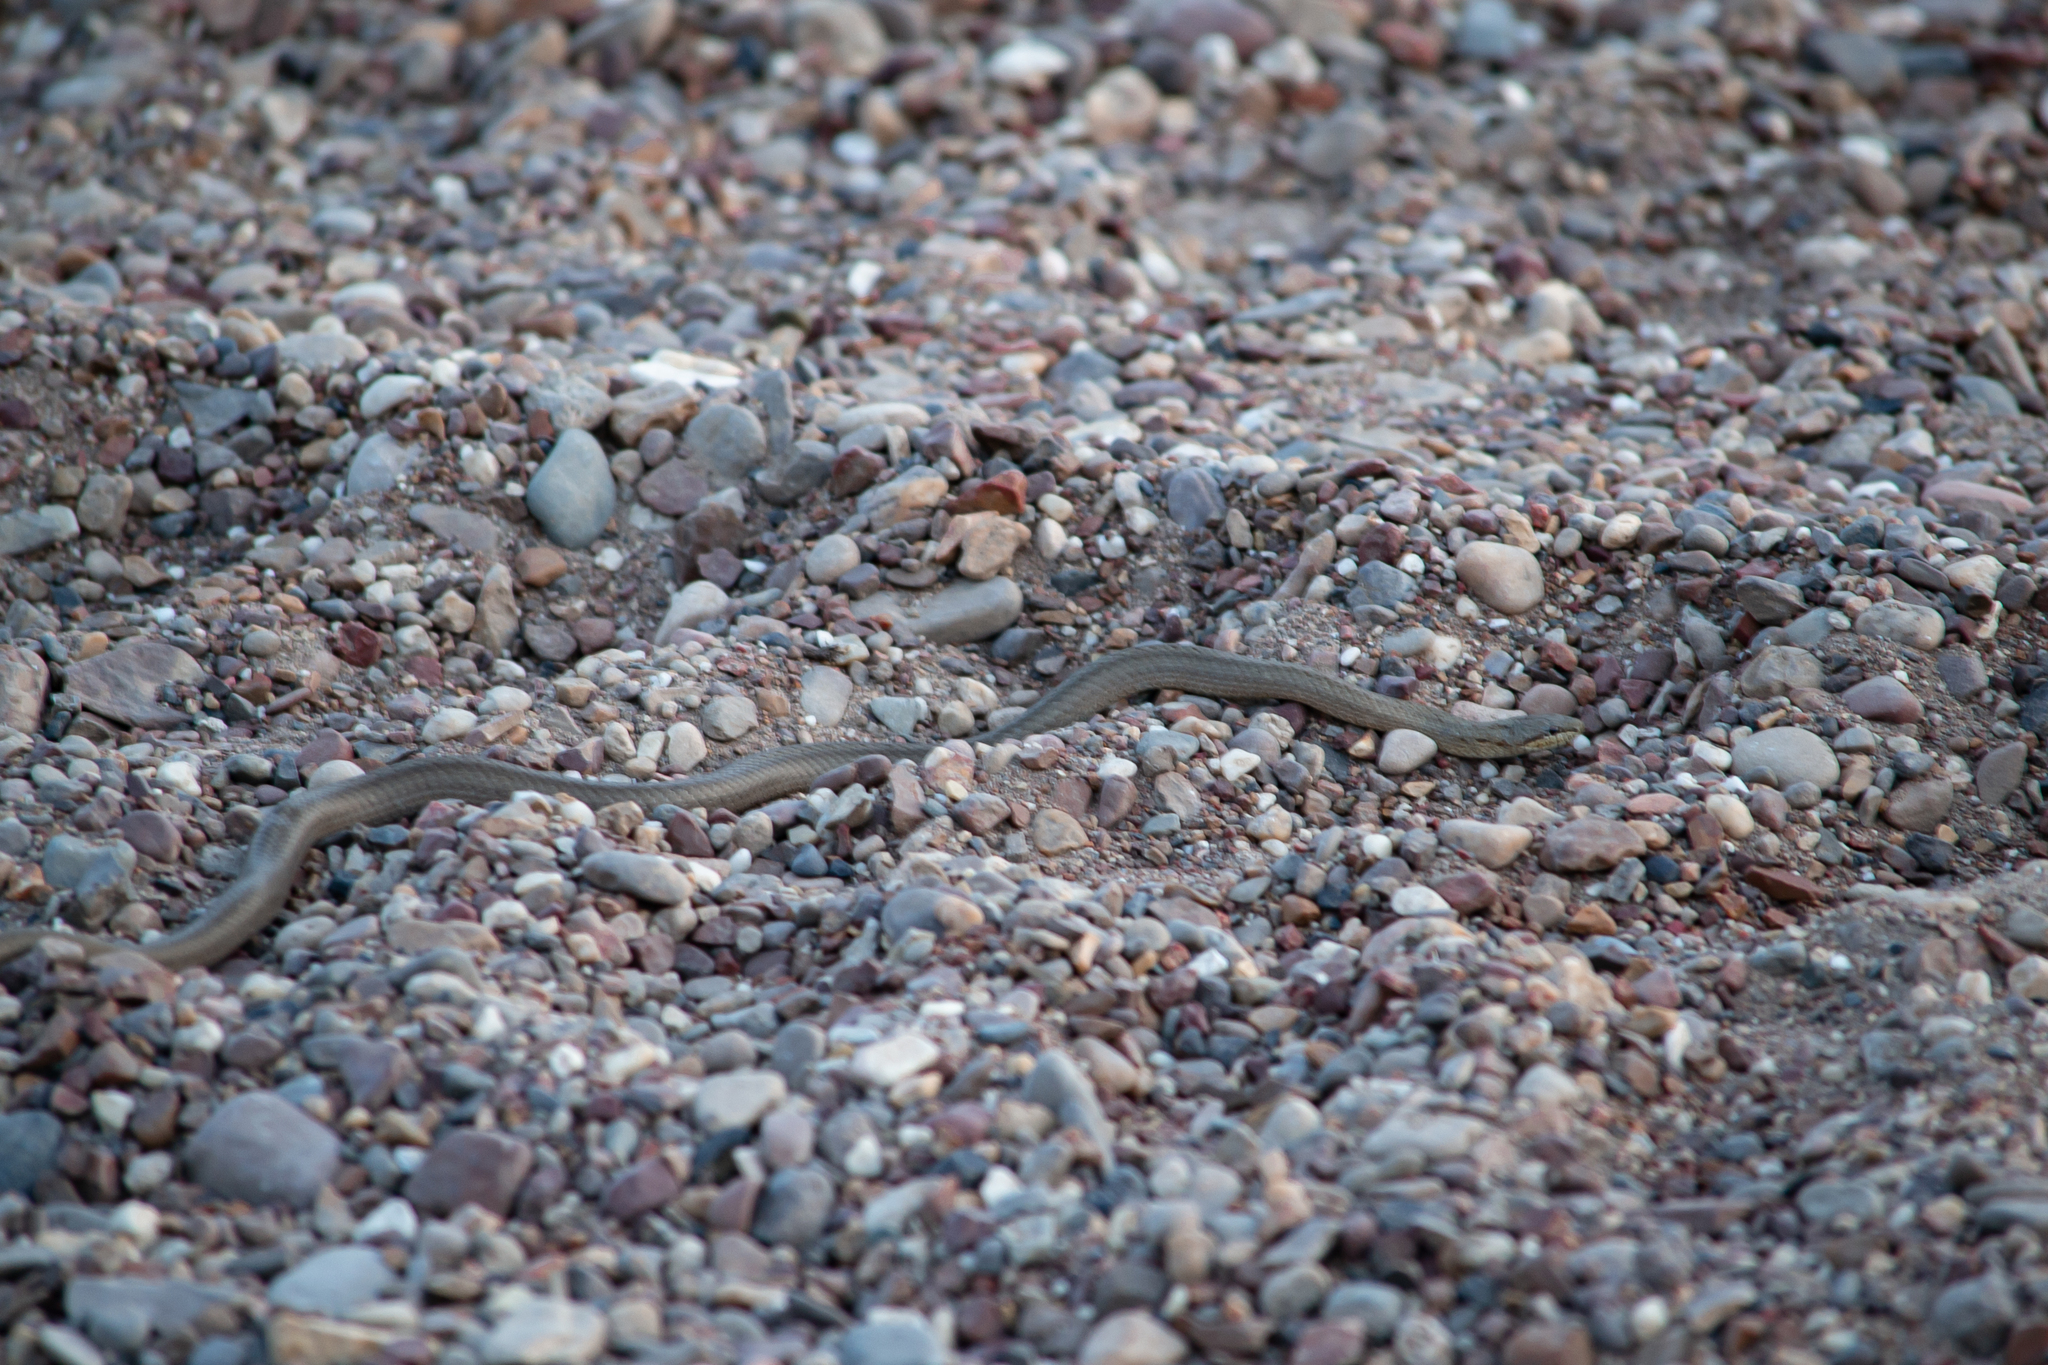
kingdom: Animalia
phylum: Chordata
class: Squamata
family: Colubridae
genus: Coronella
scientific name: Coronella austriaca
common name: Smooth snake
